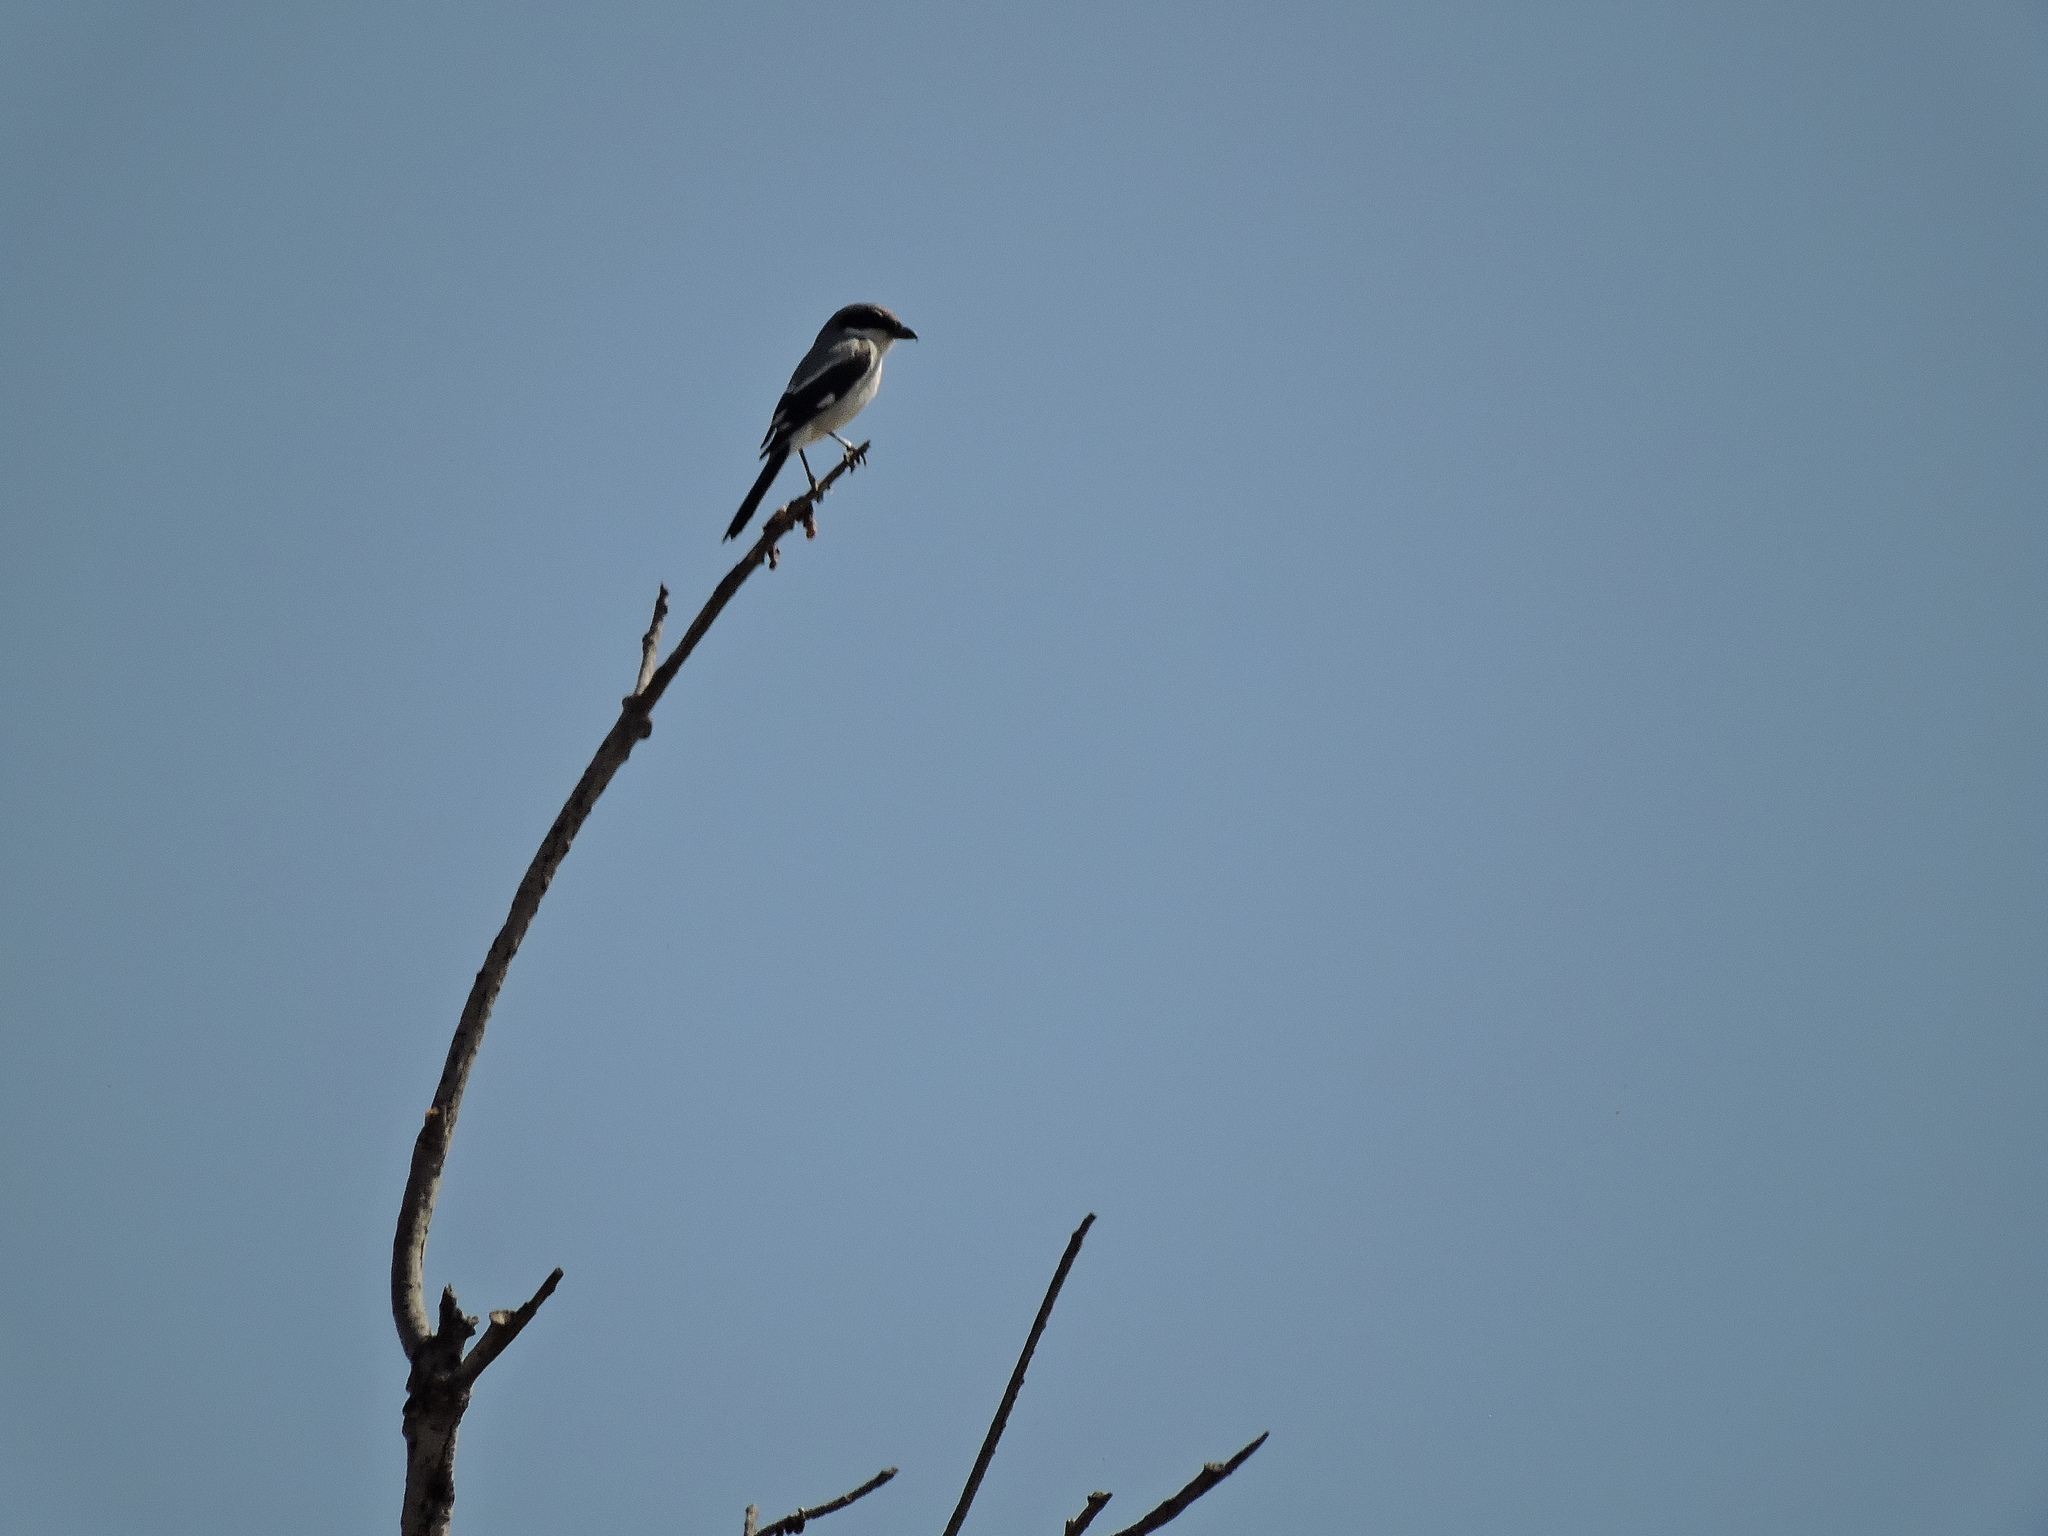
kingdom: Animalia
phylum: Chordata
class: Aves
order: Passeriformes
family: Laniidae
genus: Lanius
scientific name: Lanius ludovicianus
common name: Loggerhead shrike
